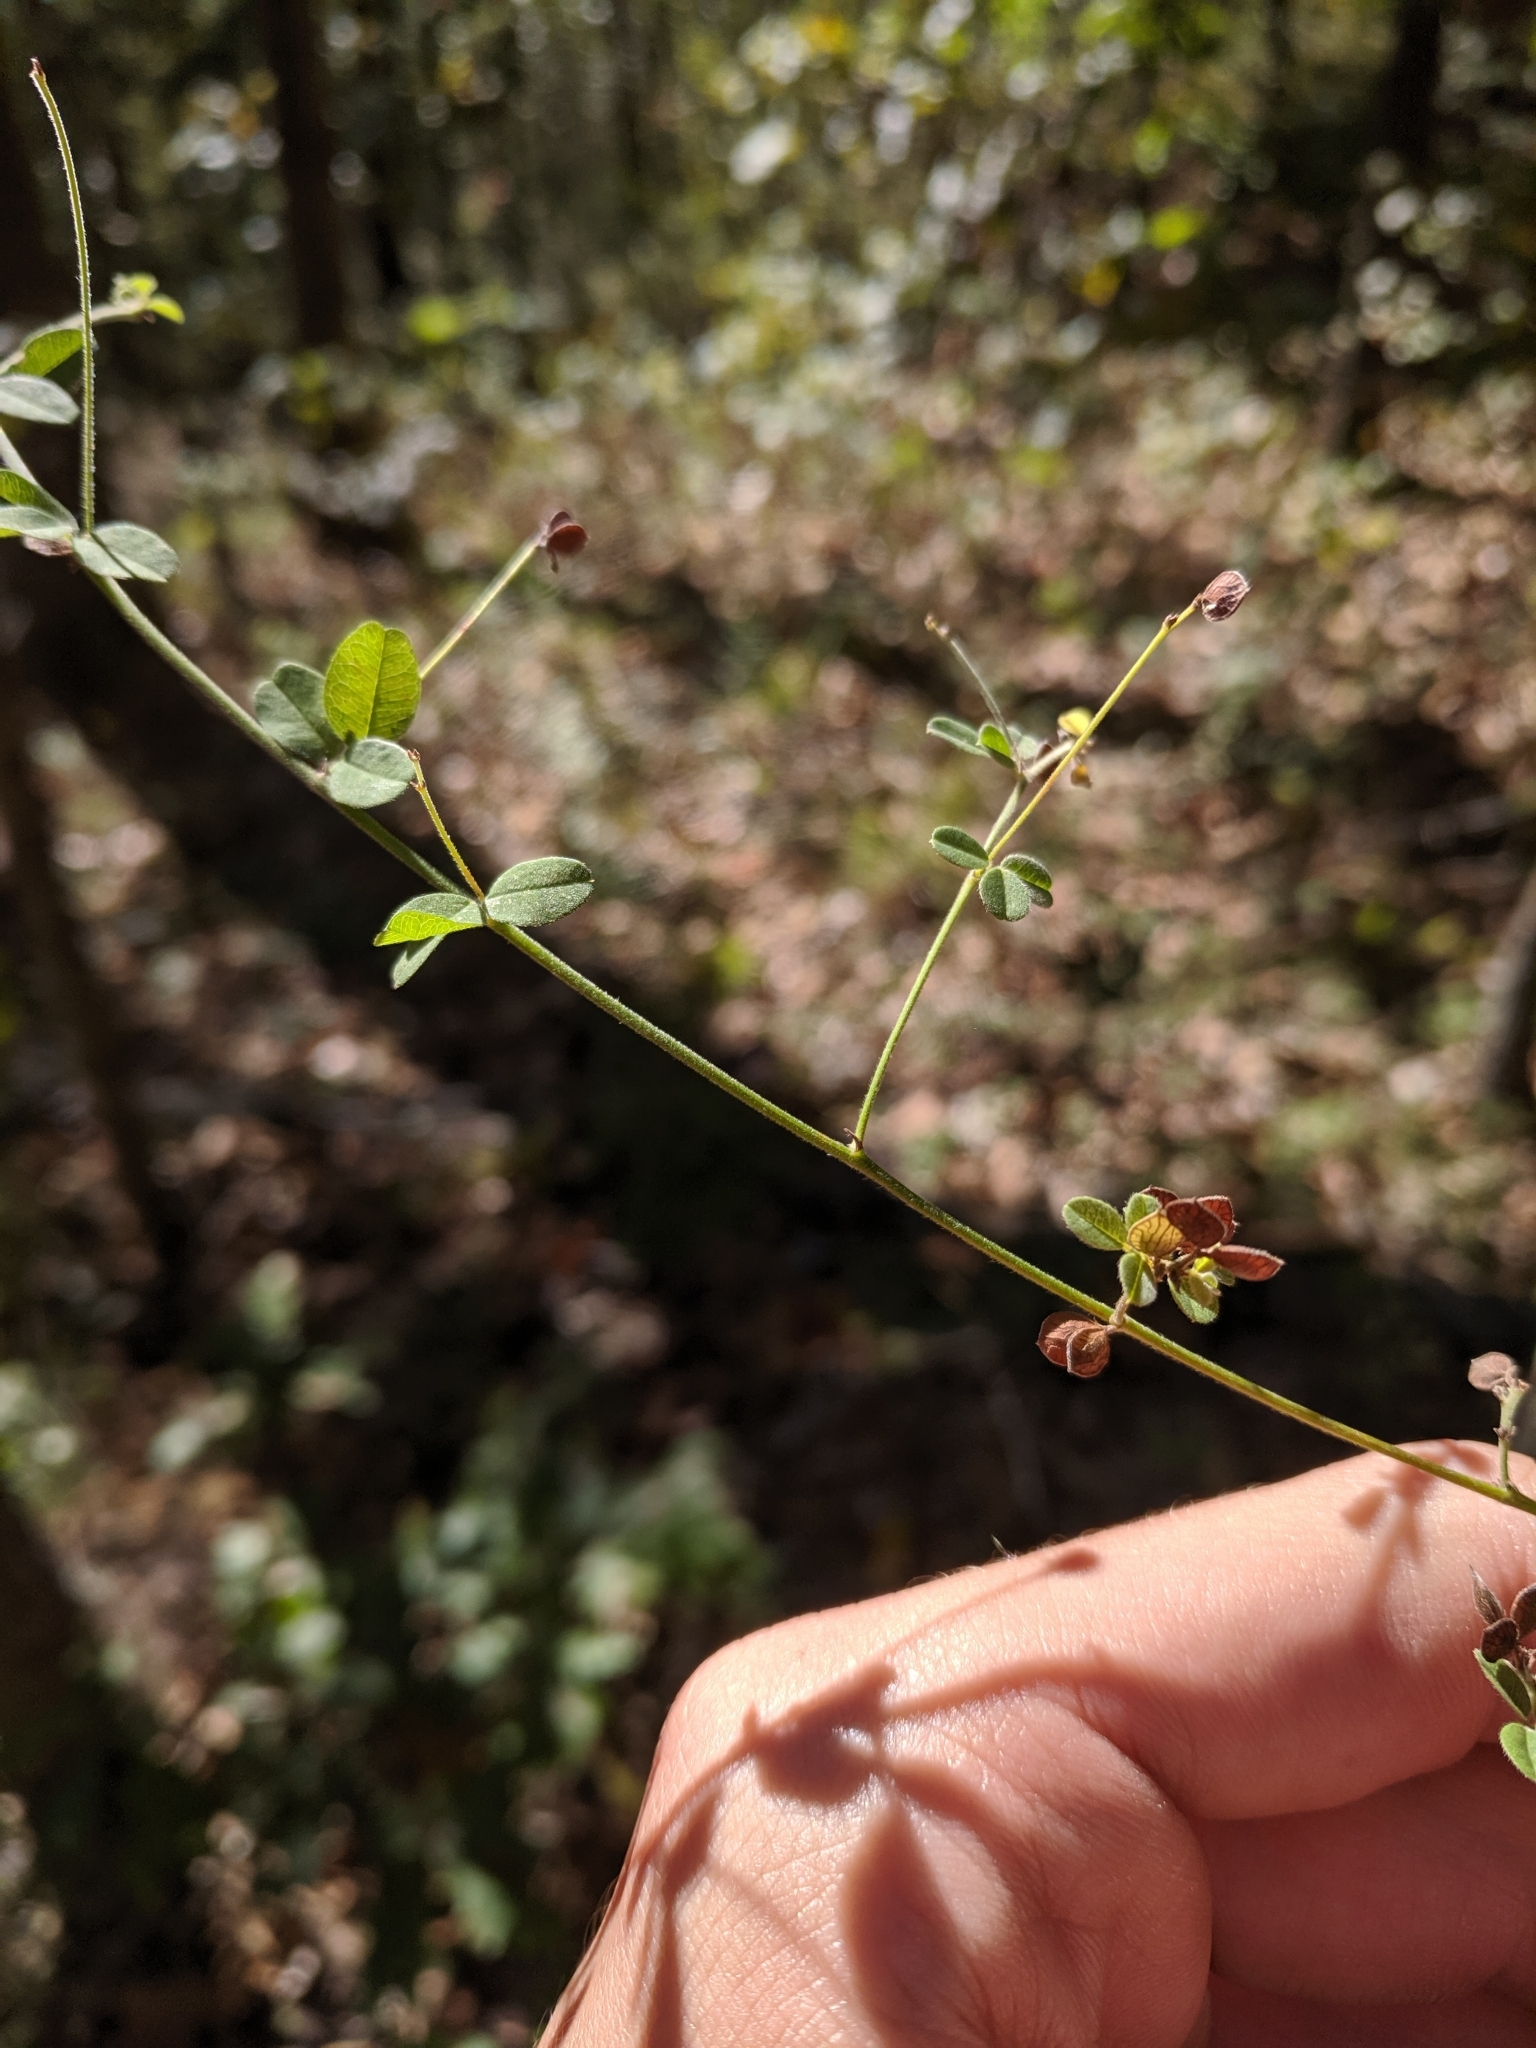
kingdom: Plantae
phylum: Tracheophyta
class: Magnoliopsida
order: Fabales
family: Fabaceae
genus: Lespedeza
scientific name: Lespedeza procumbens
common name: Downy trailing bush-clover
